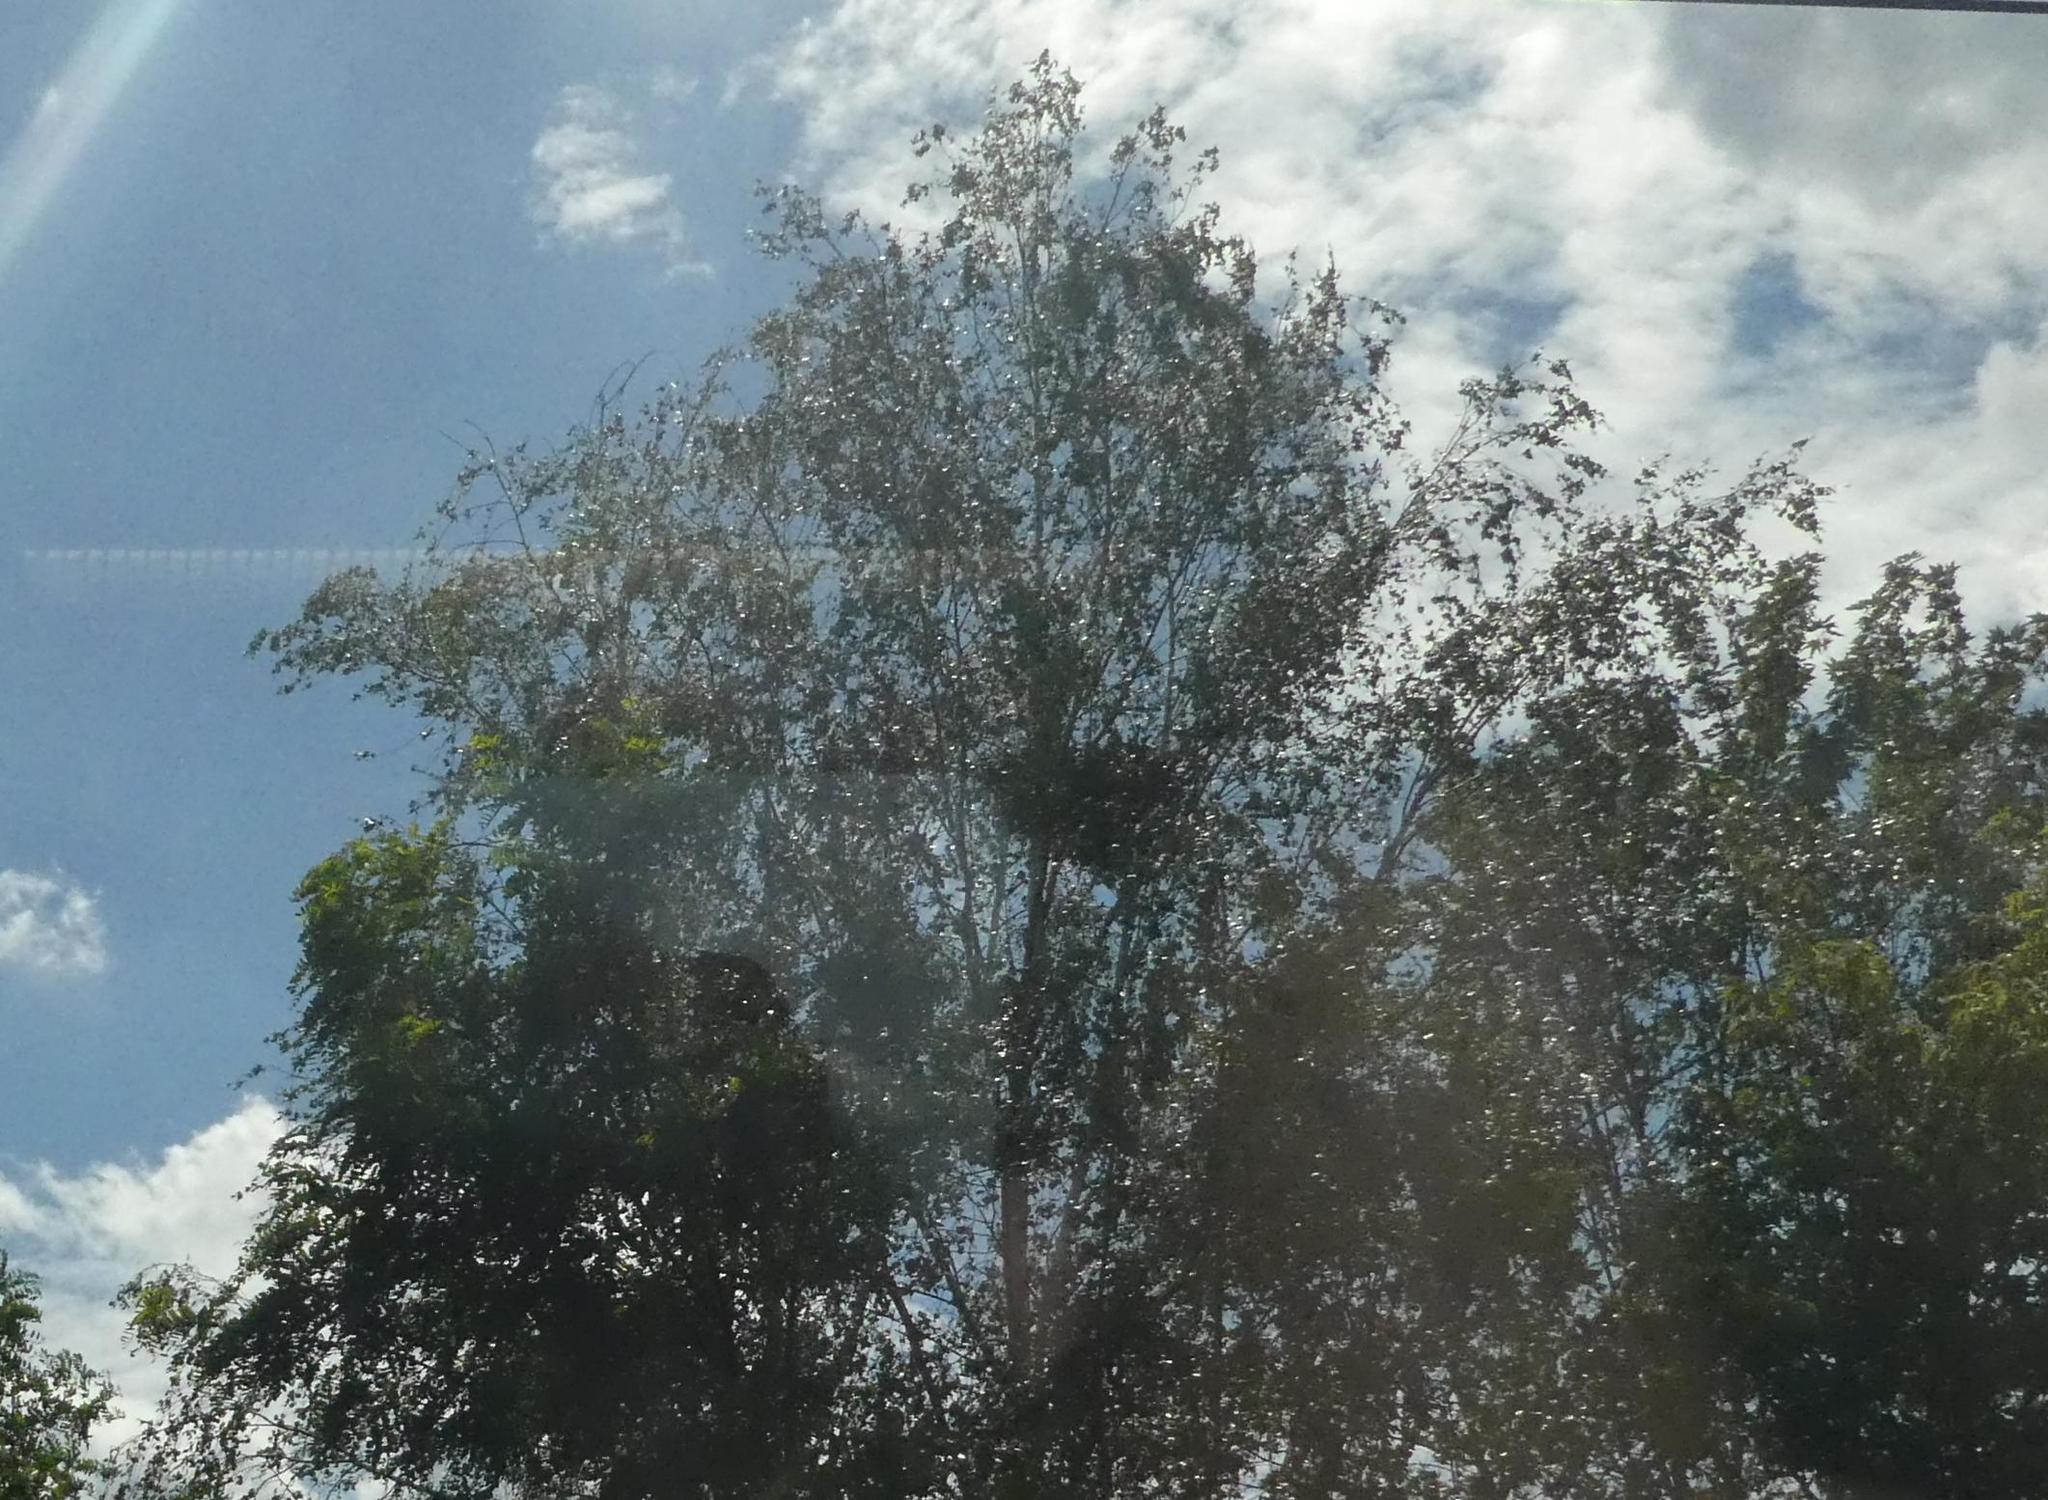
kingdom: Plantae
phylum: Tracheophyta
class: Magnoliopsida
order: Santalales
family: Viscaceae
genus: Viscum
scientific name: Viscum album
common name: Mistletoe
